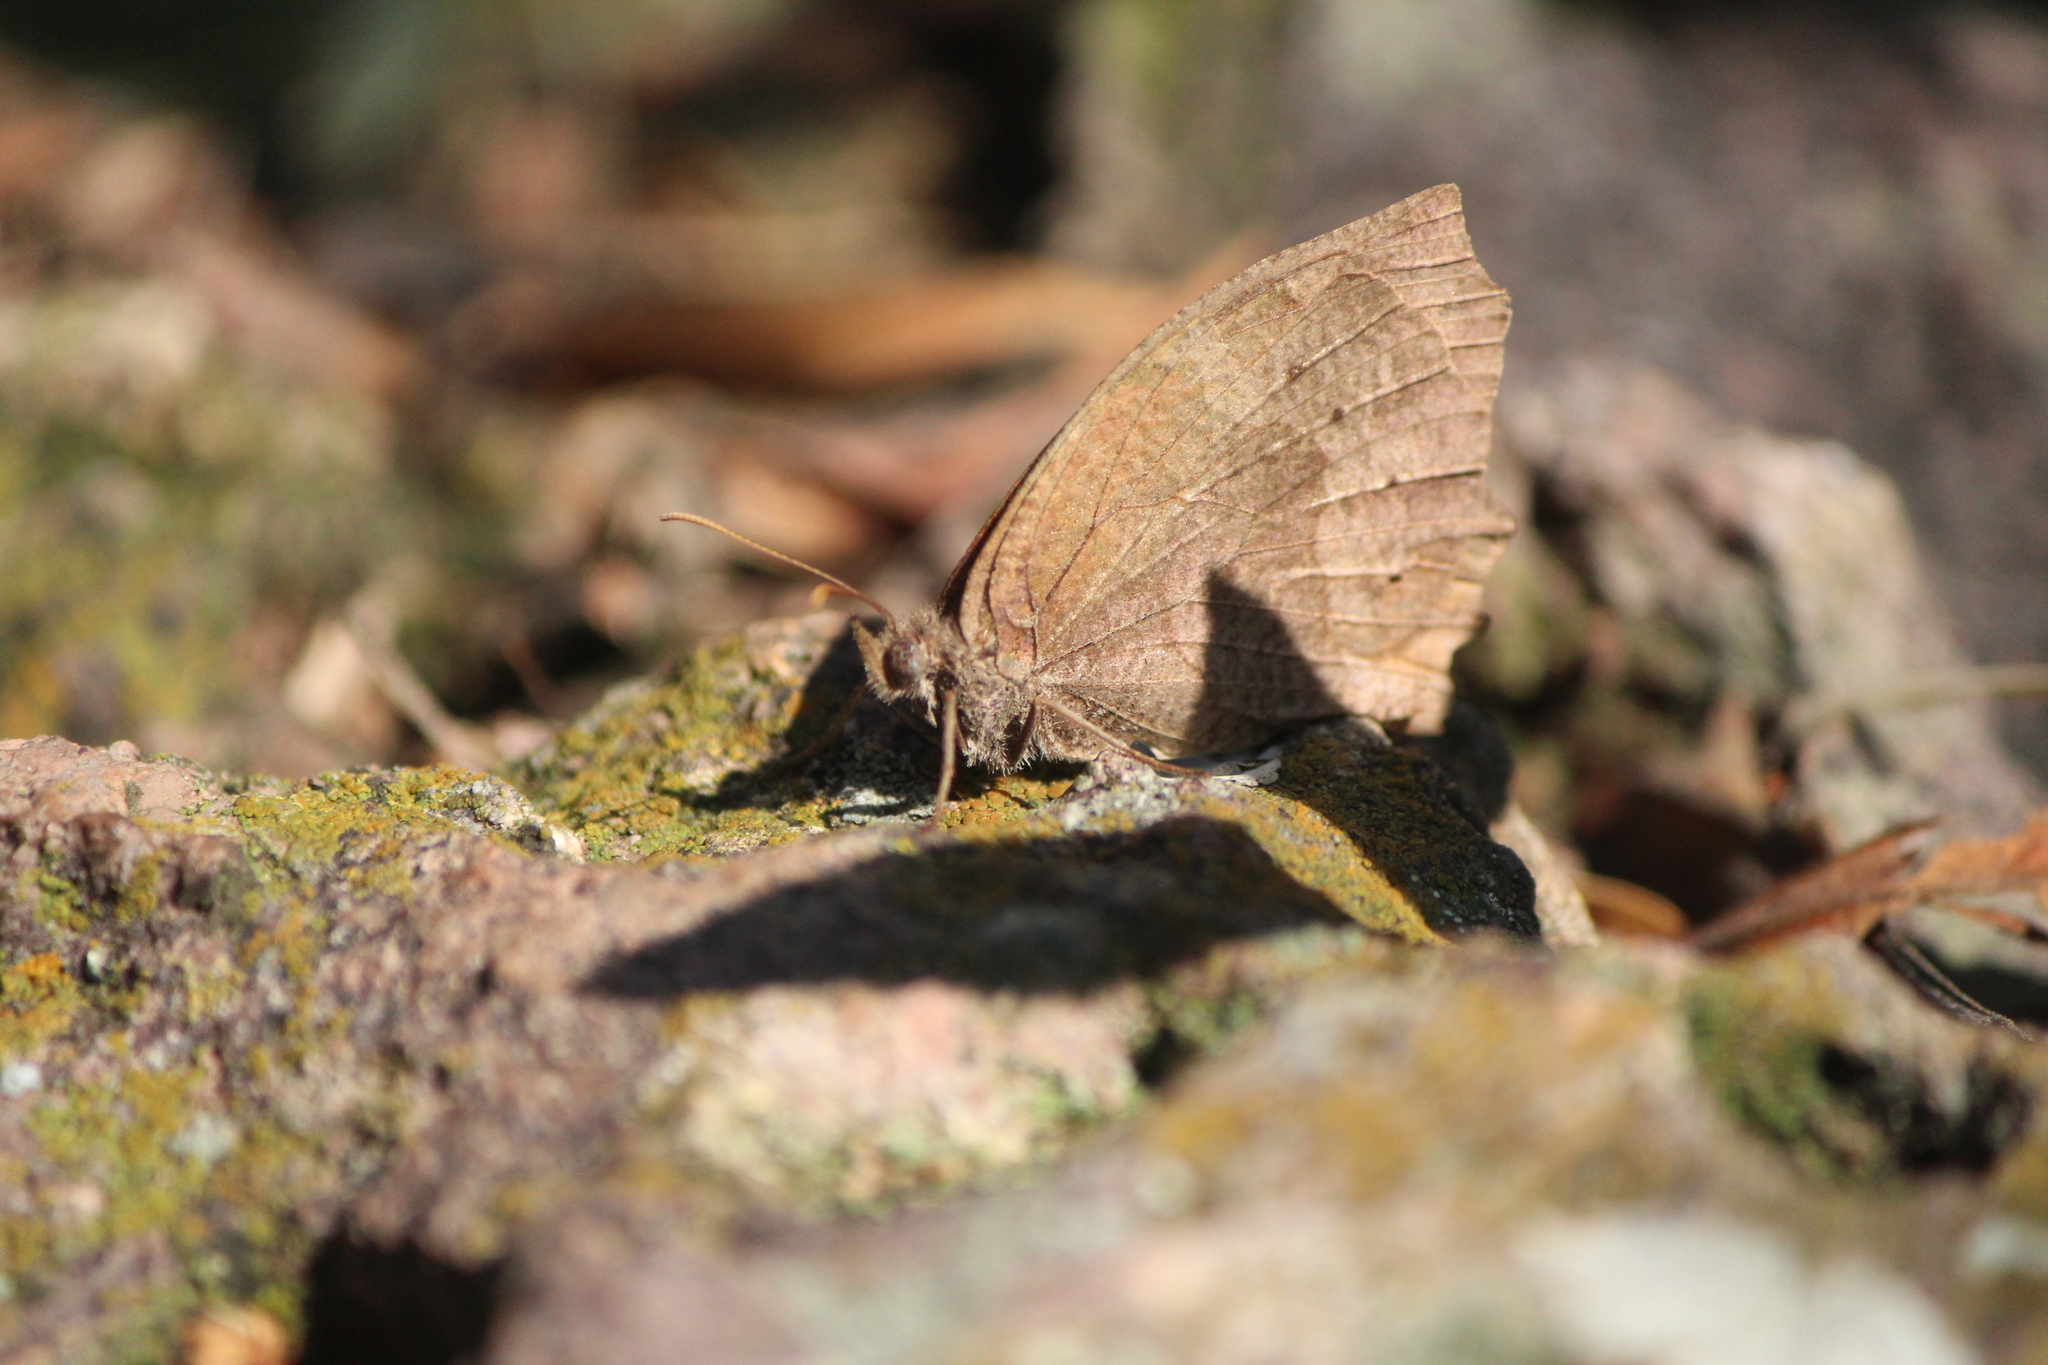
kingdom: Animalia
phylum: Arthropoda
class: Insecta
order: Lepidoptera
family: Nymphalidae
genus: Pindis
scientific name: Pindis squamistriga
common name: Variable satyr
